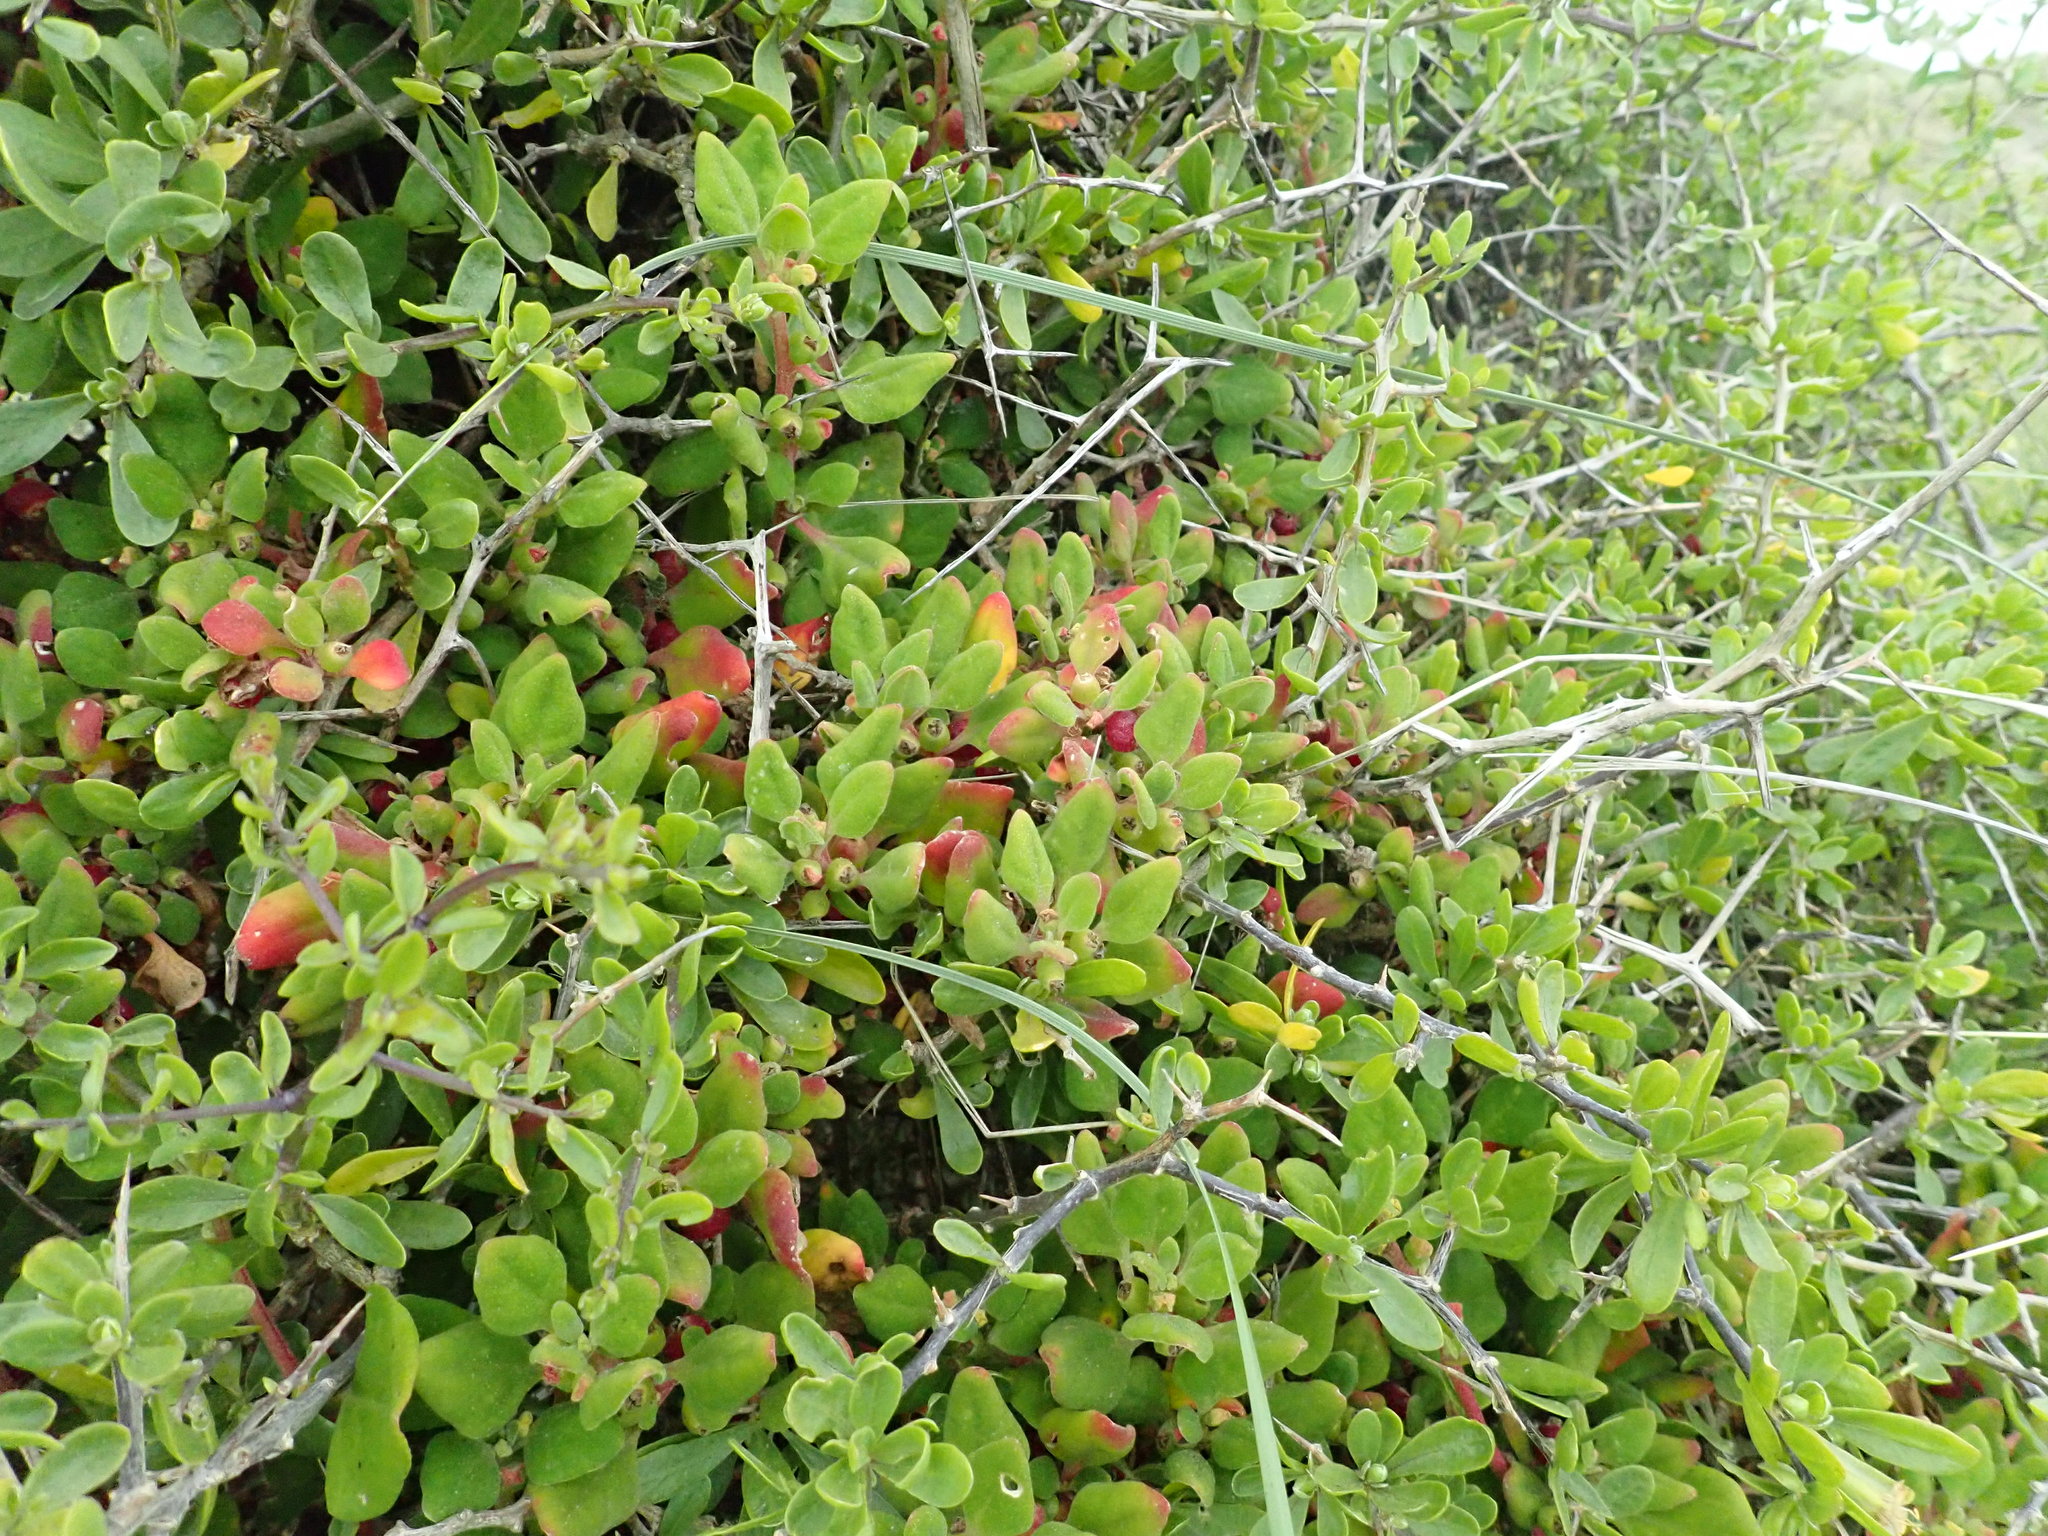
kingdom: Plantae
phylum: Tracheophyta
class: Magnoliopsida
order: Caryophyllales
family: Aizoaceae
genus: Tetragonia
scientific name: Tetragonia implexicoma
